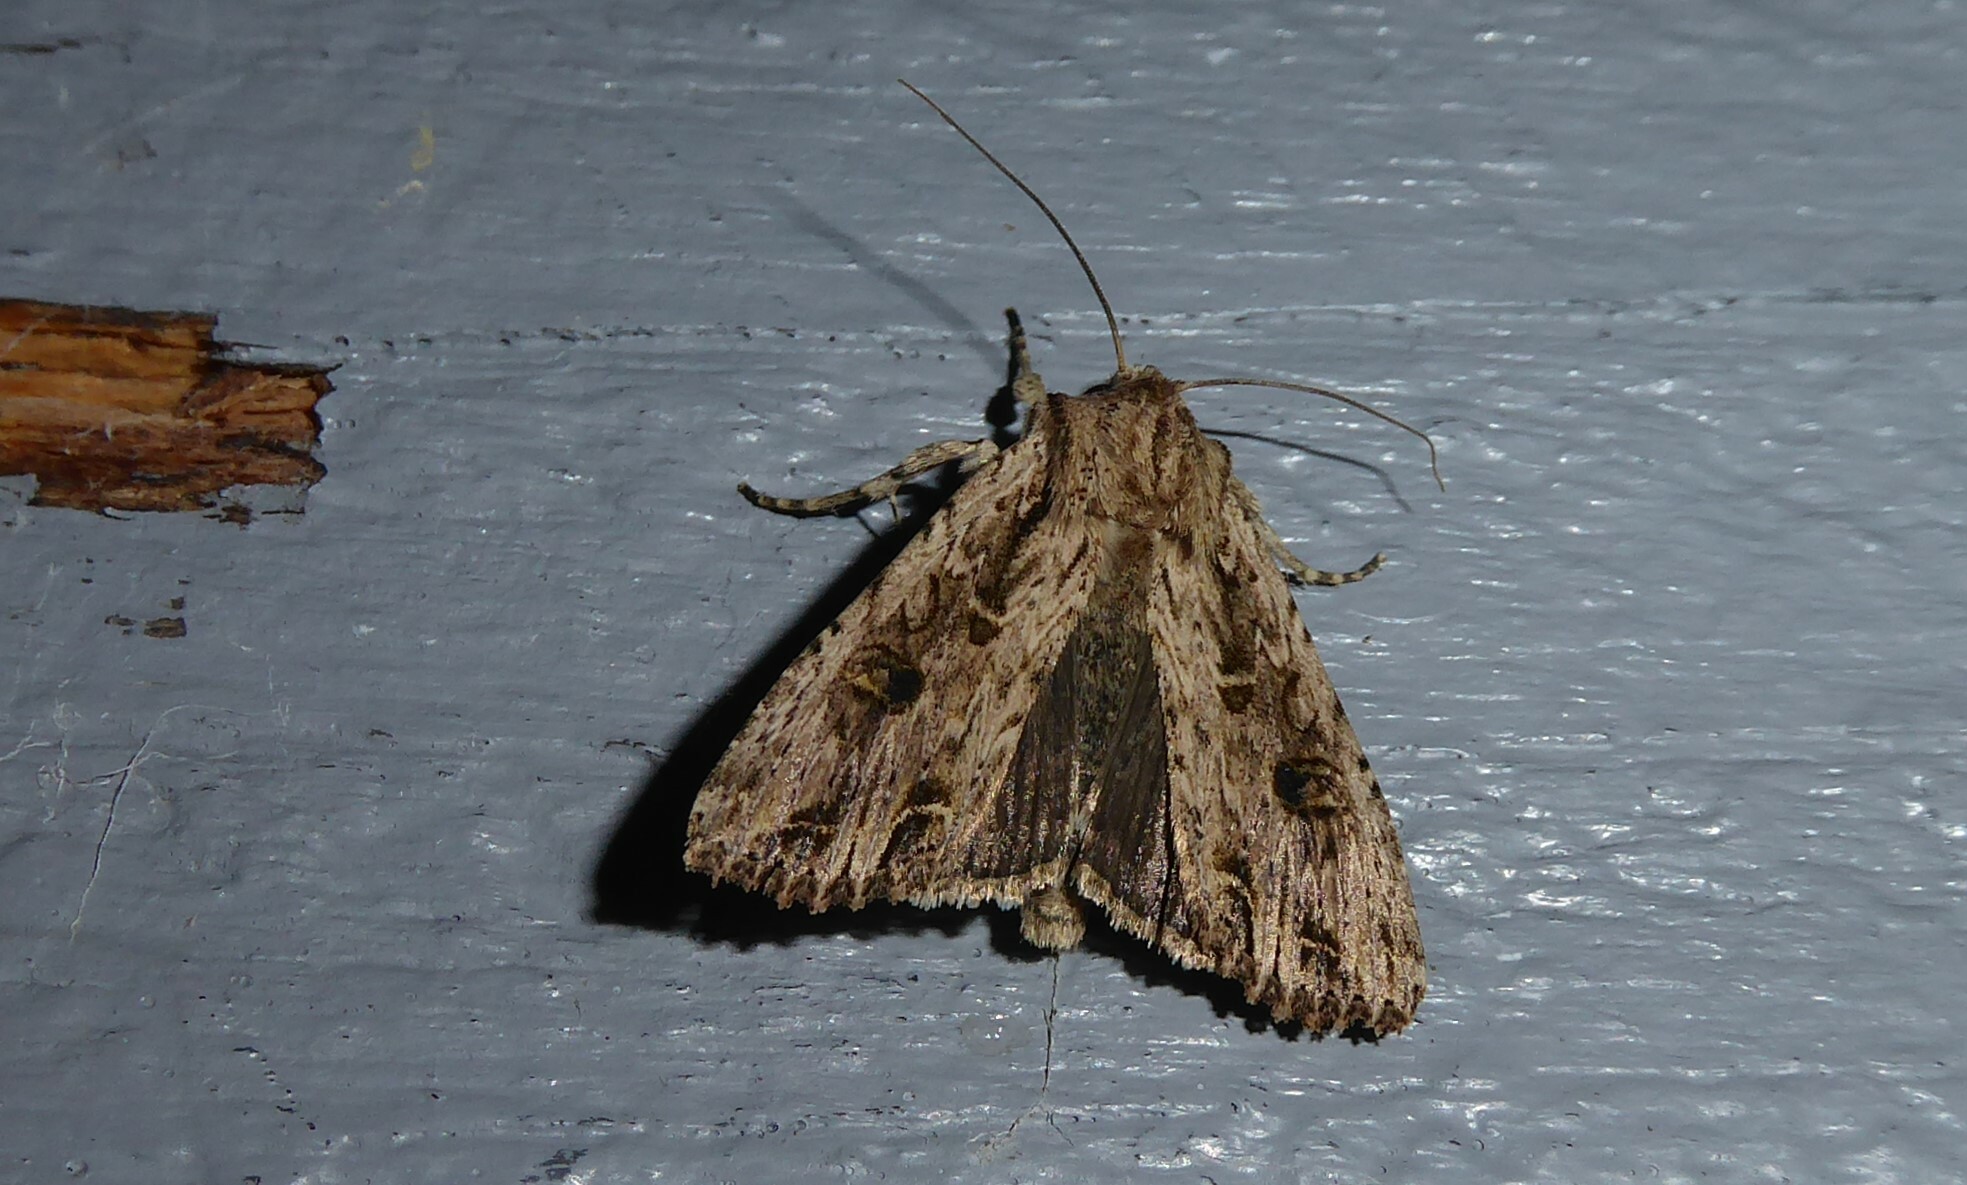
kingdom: Animalia
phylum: Arthropoda
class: Insecta
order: Lepidoptera
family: Noctuidae
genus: Ichneutica
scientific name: Ichneutica lignana
